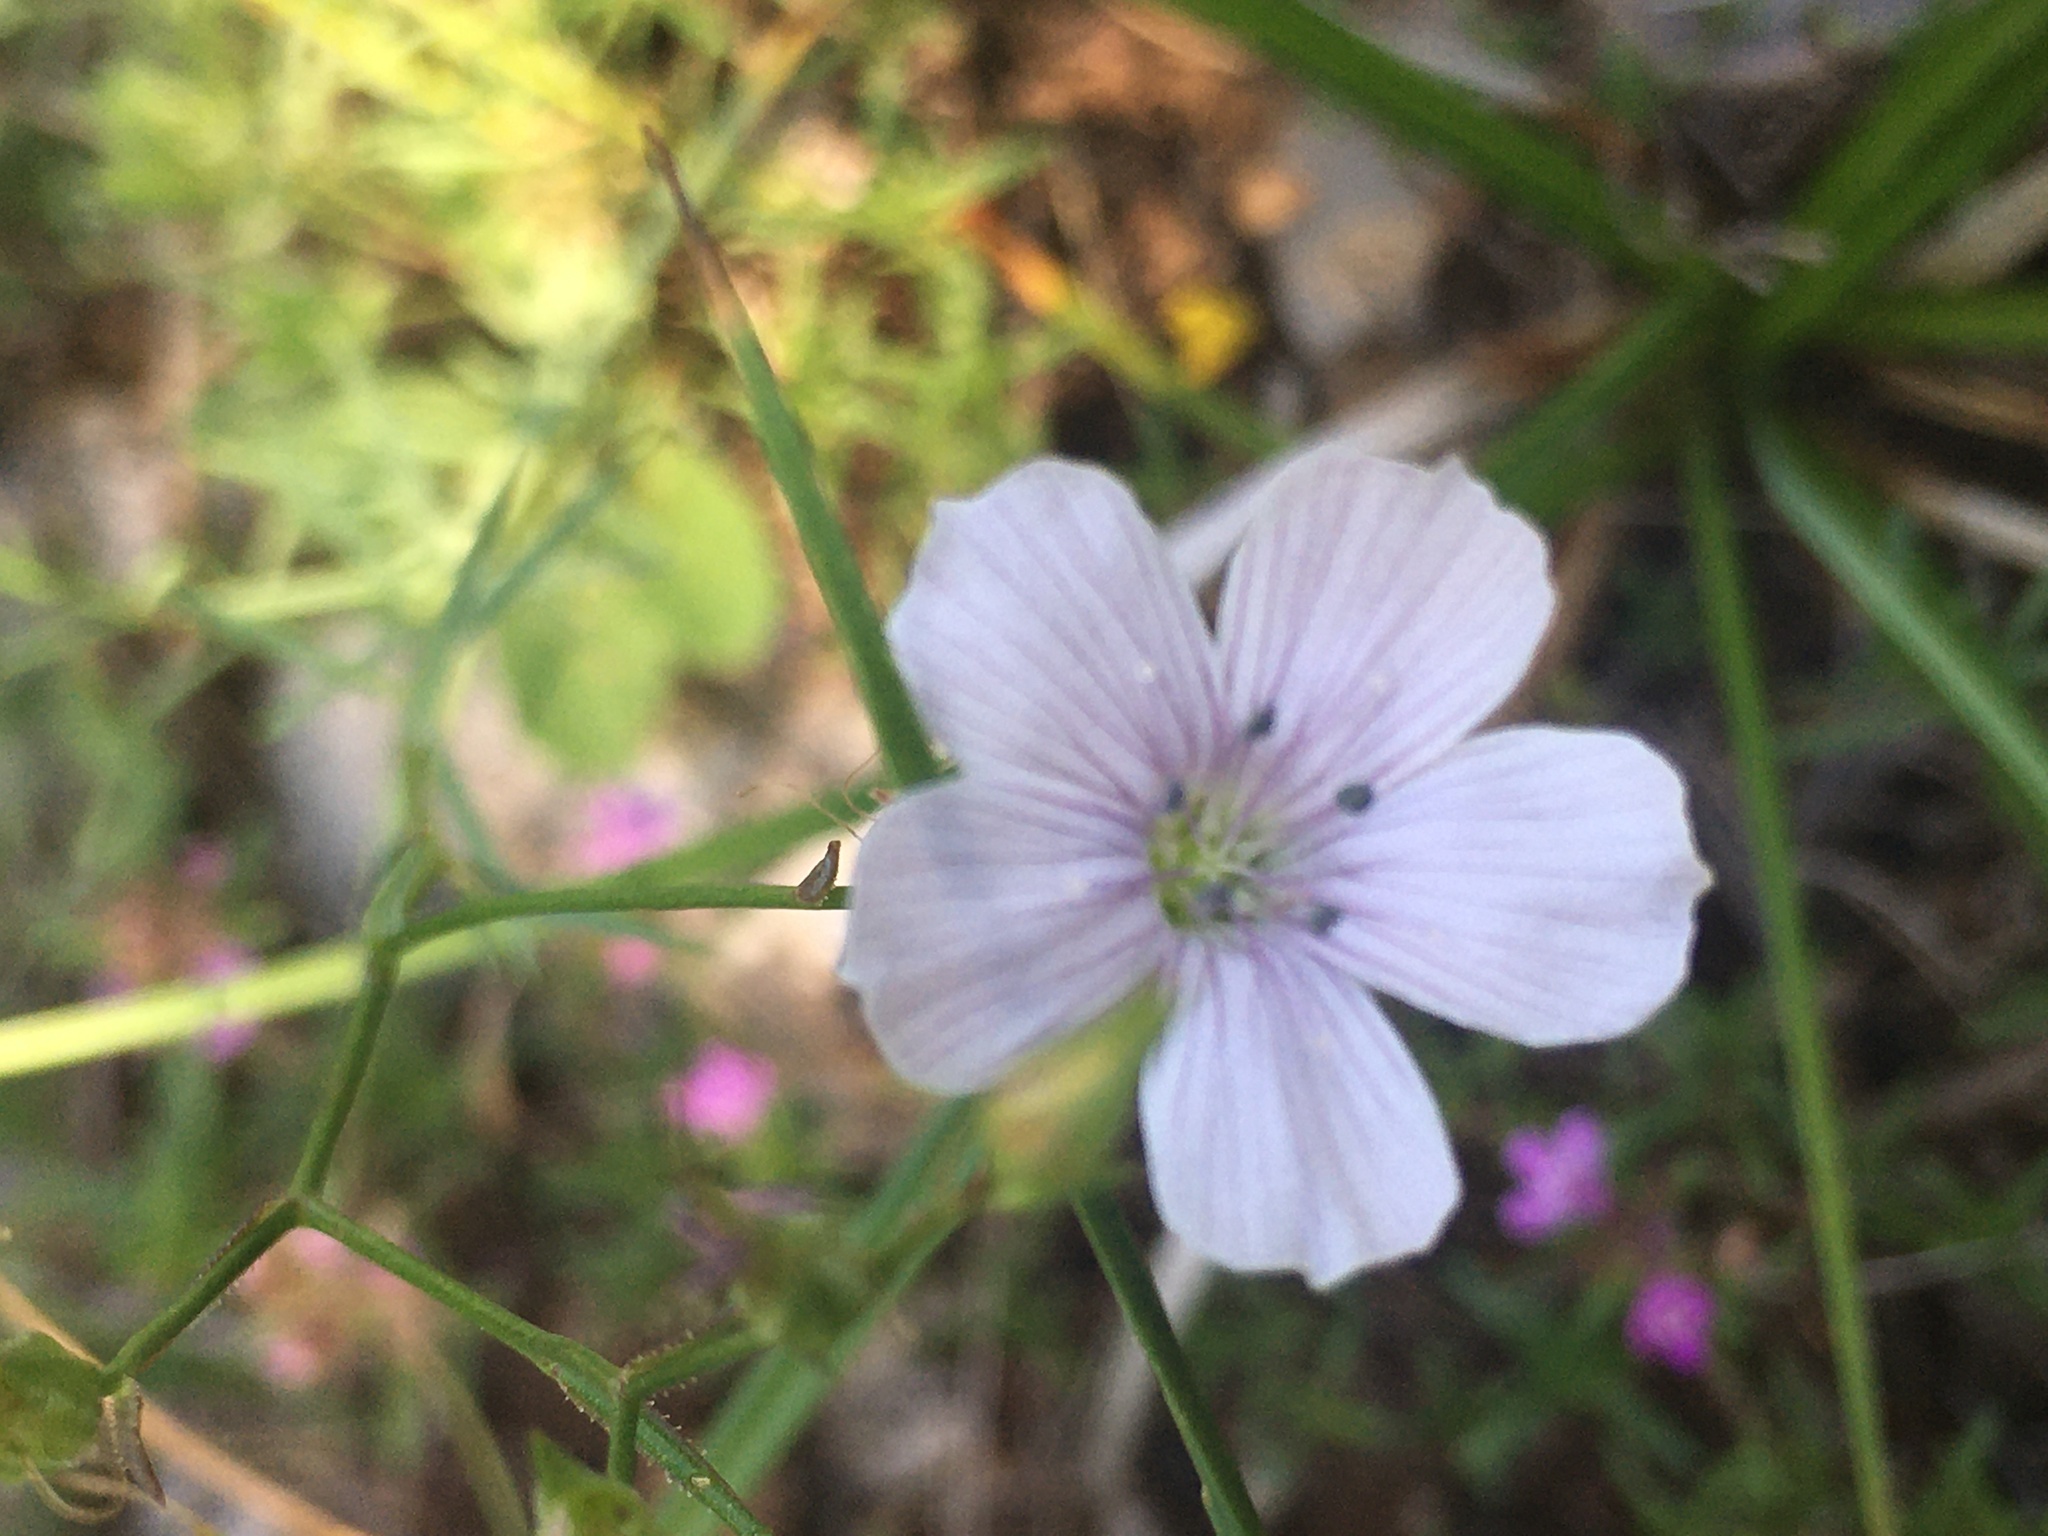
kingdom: Plantae
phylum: Tracheophyta
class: Magnoliopsida
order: Malpighiales
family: Linaceae
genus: Linum
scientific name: Linum tenuifolium
